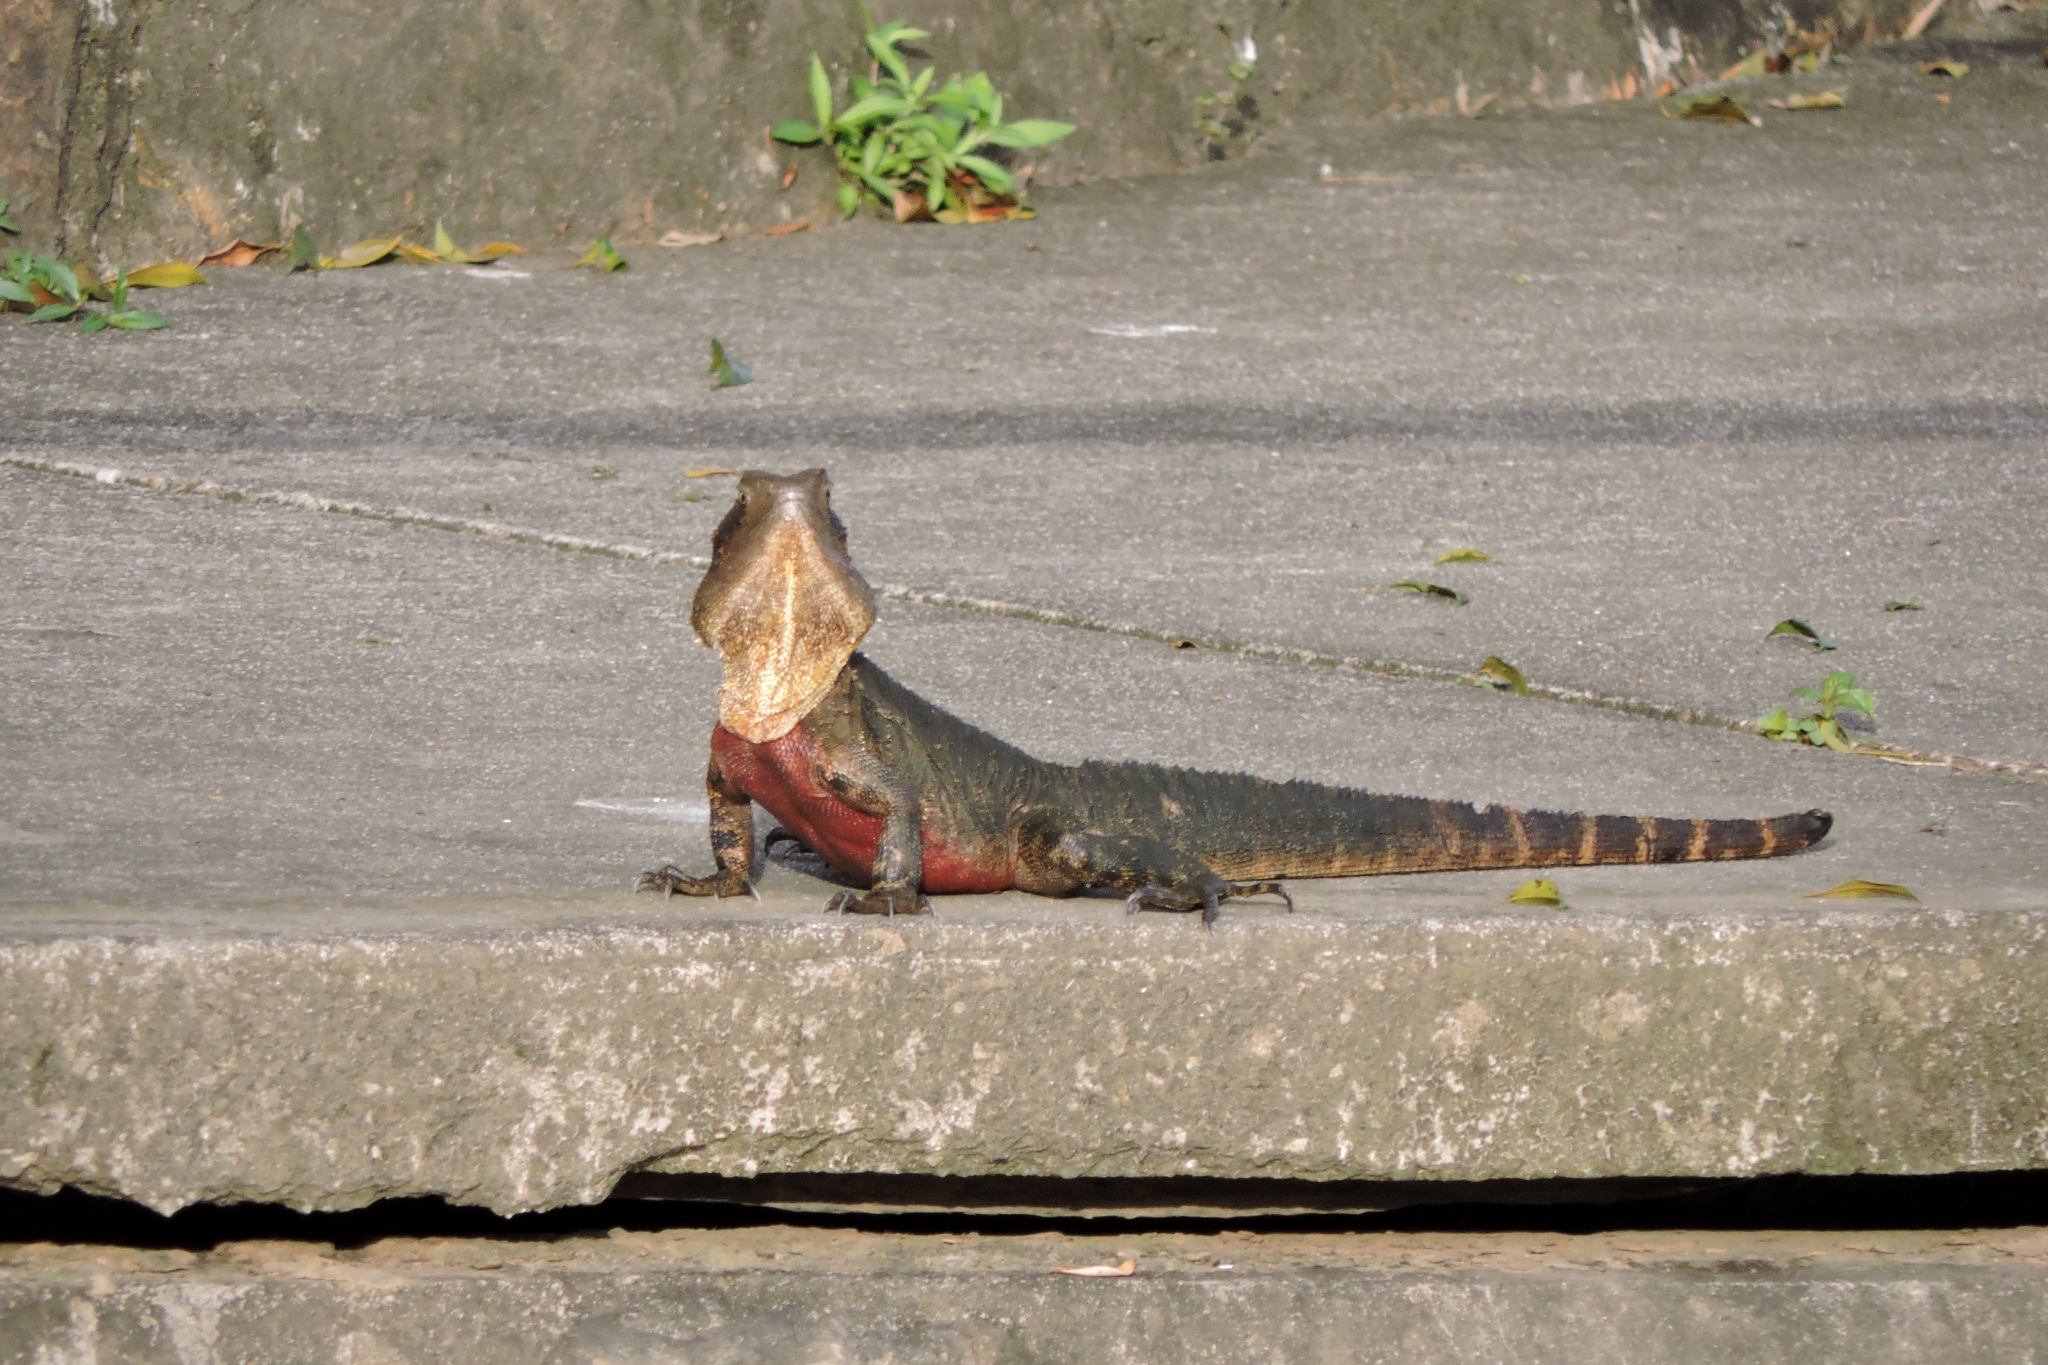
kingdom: Animalia
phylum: Chordata
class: Squamata
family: Agamidae
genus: Intellagama
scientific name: Intellagama lesueurii
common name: Eastern water dragon
